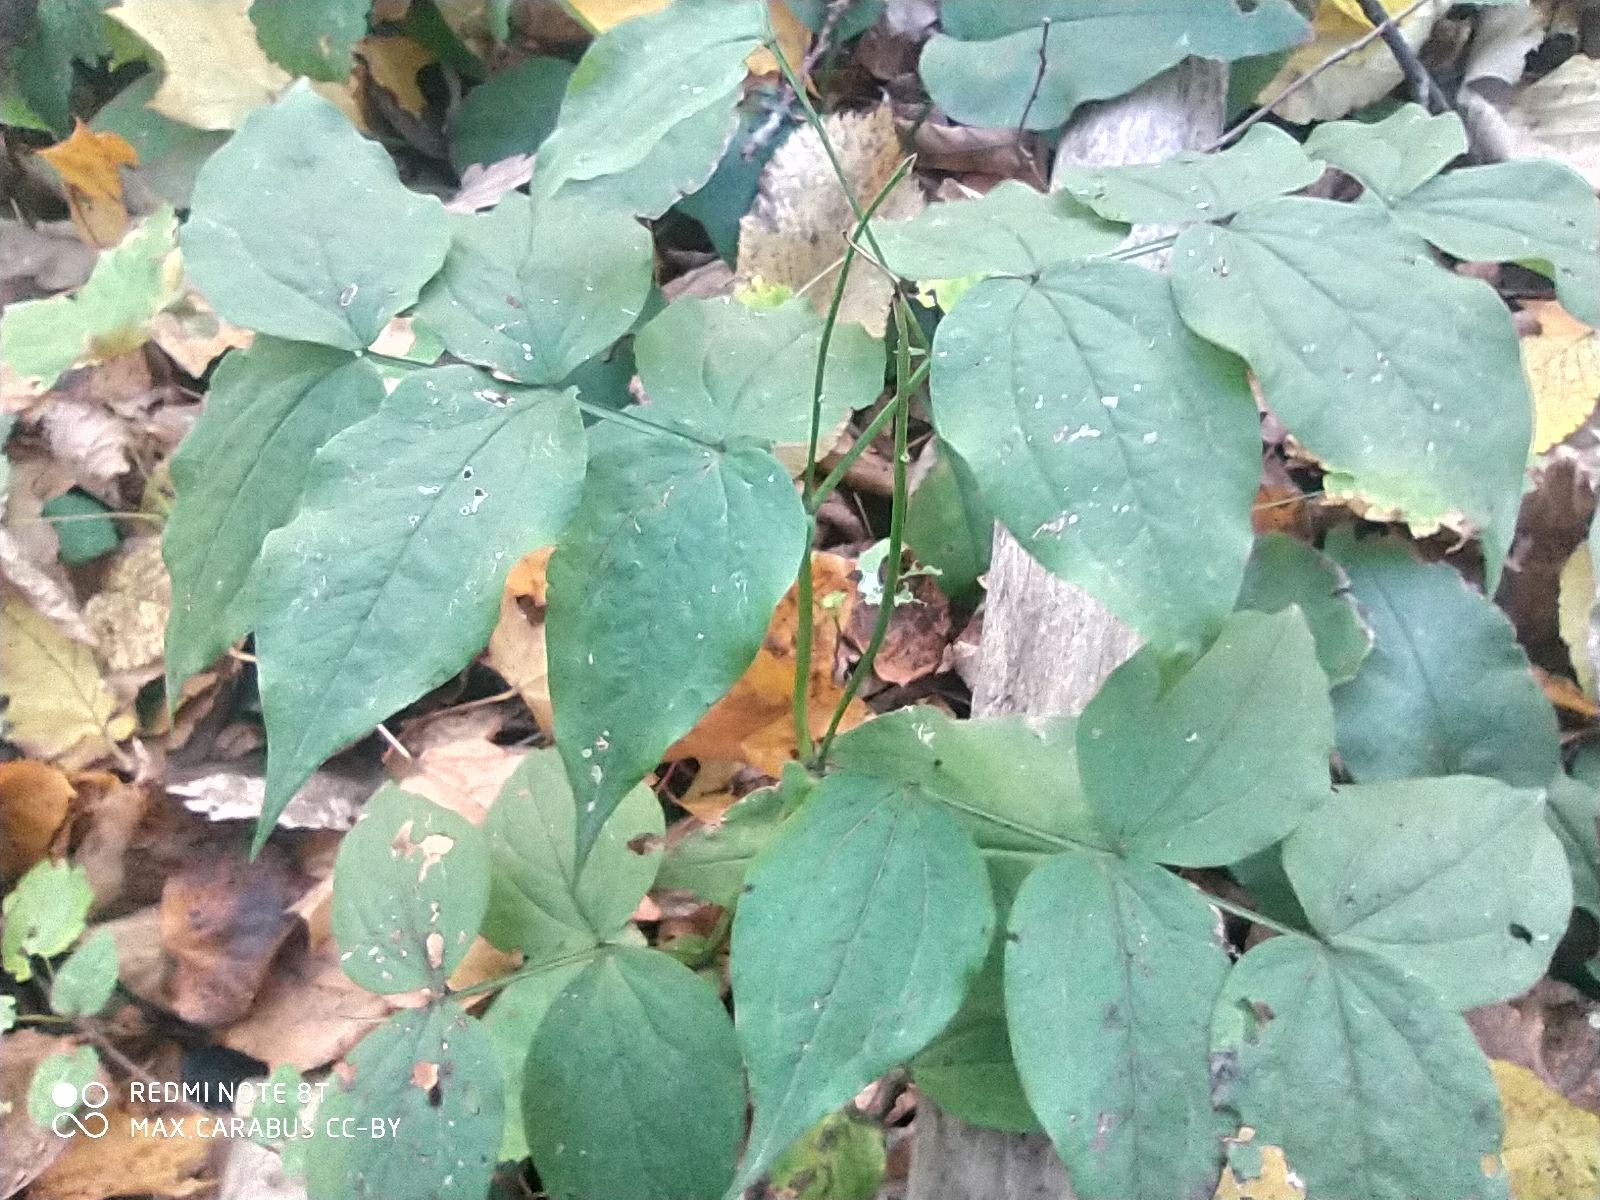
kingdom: Plantae
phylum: Tracheophyta
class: Magnoliopsida
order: Fabales
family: Fabaceae
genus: Lathyrus
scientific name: Lathyrus vernus
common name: Spring pea
